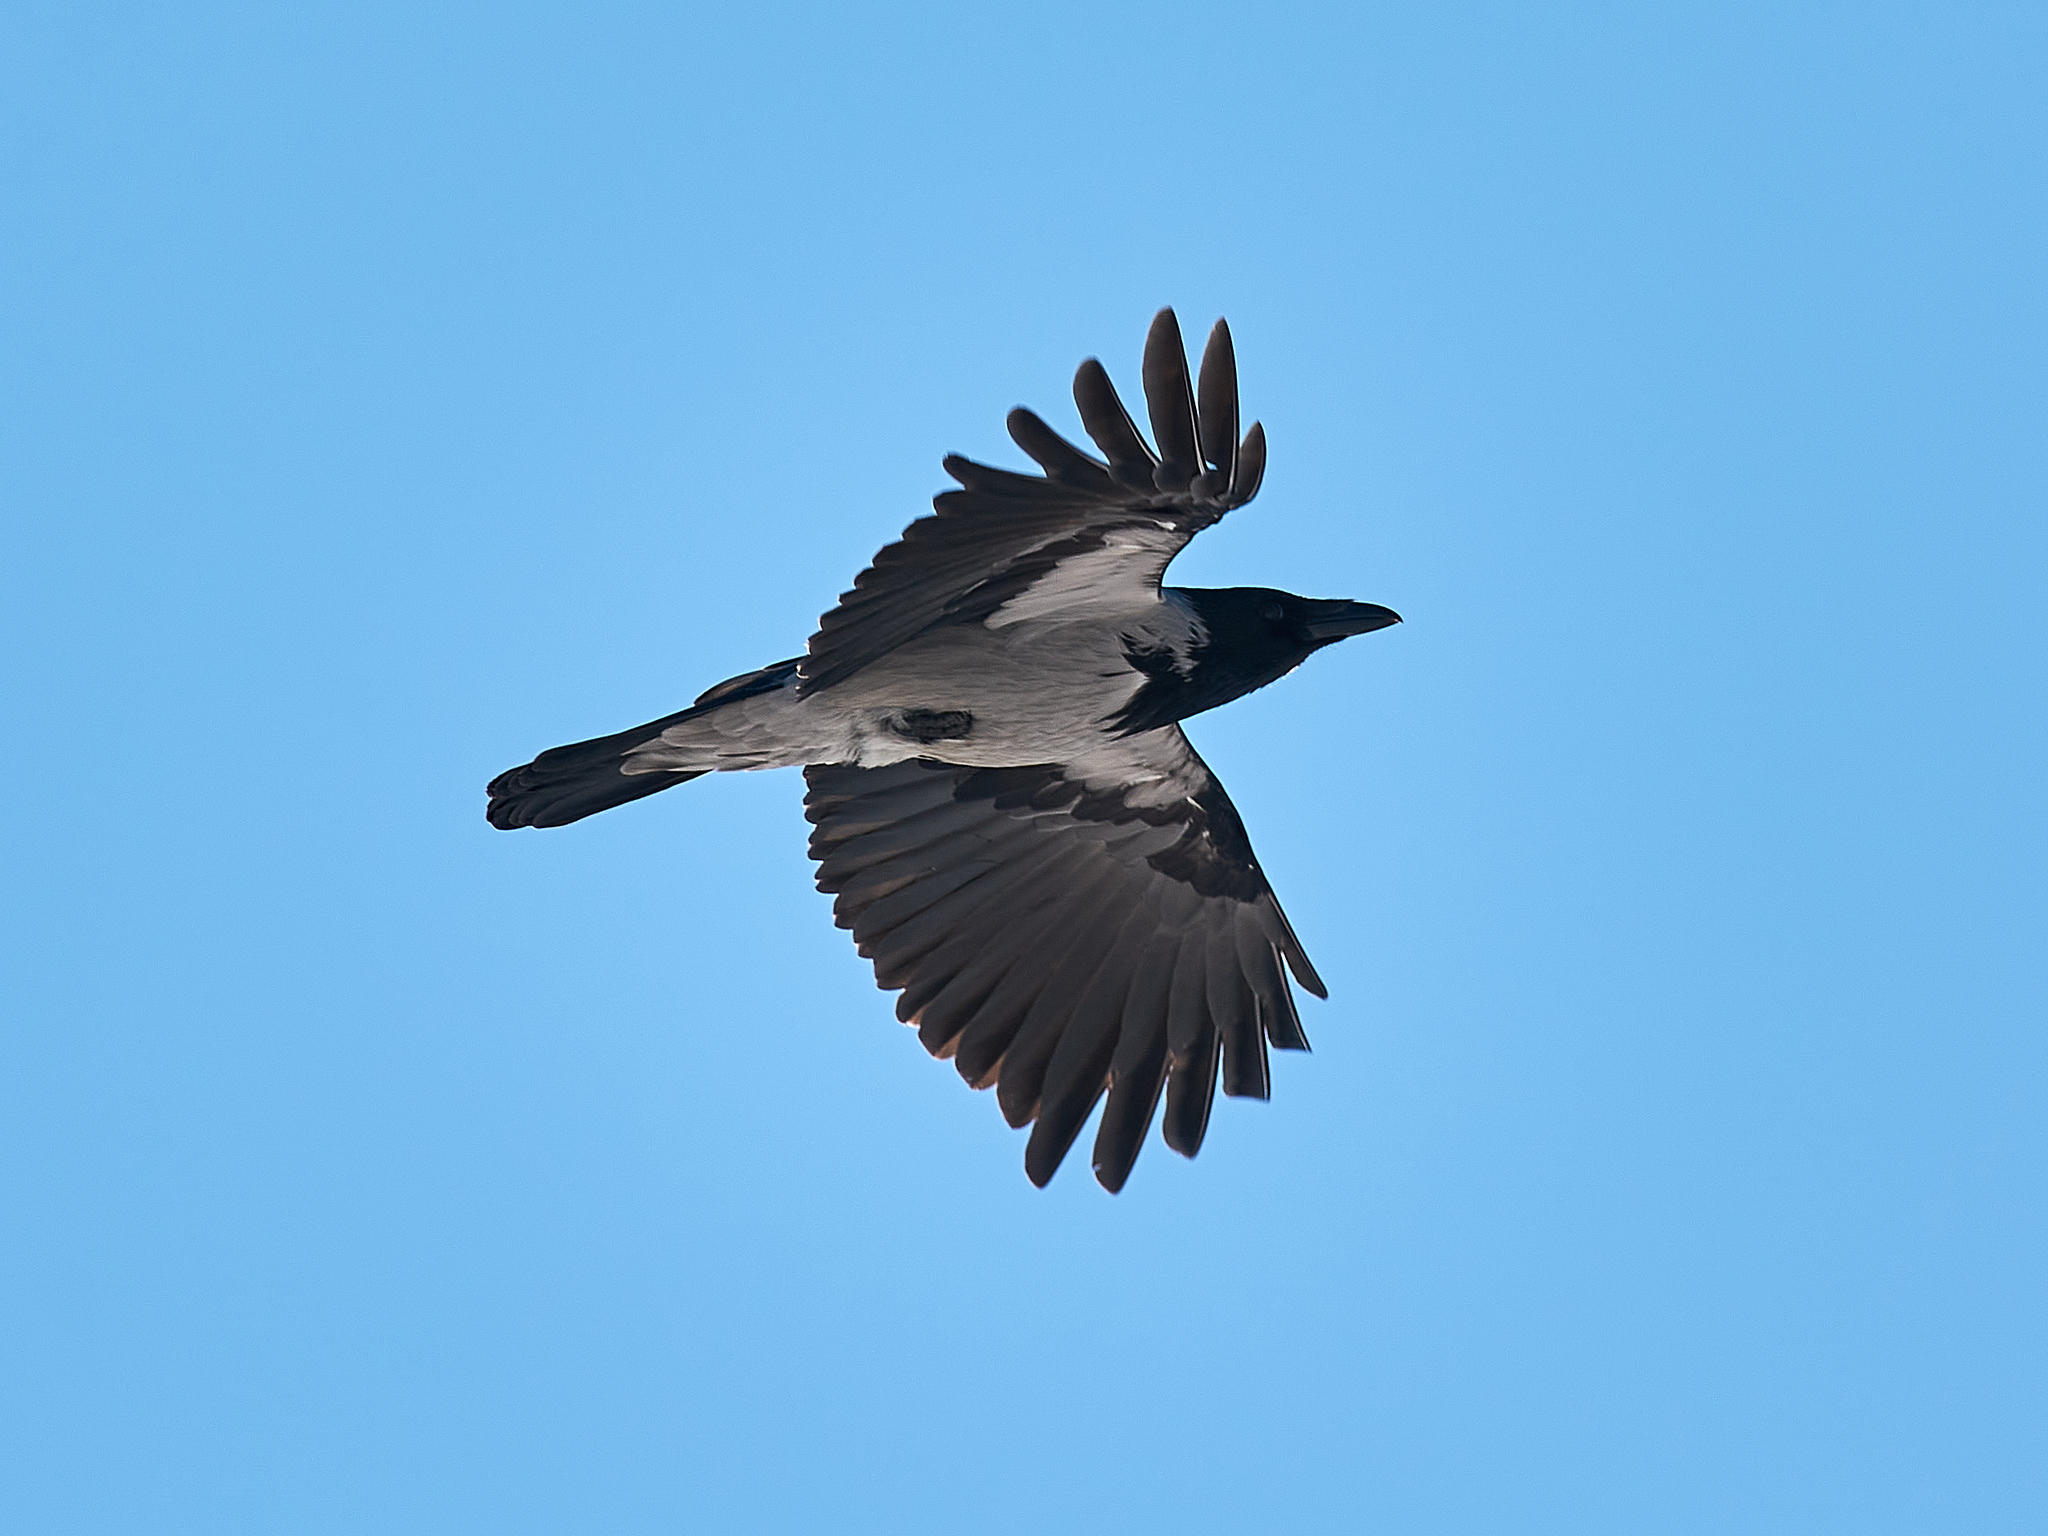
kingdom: Animalia
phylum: Chordata
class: Aves
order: Passeriformes
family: Corvidae
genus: Corvus
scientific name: Corvus cornix
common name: Hooded crow
